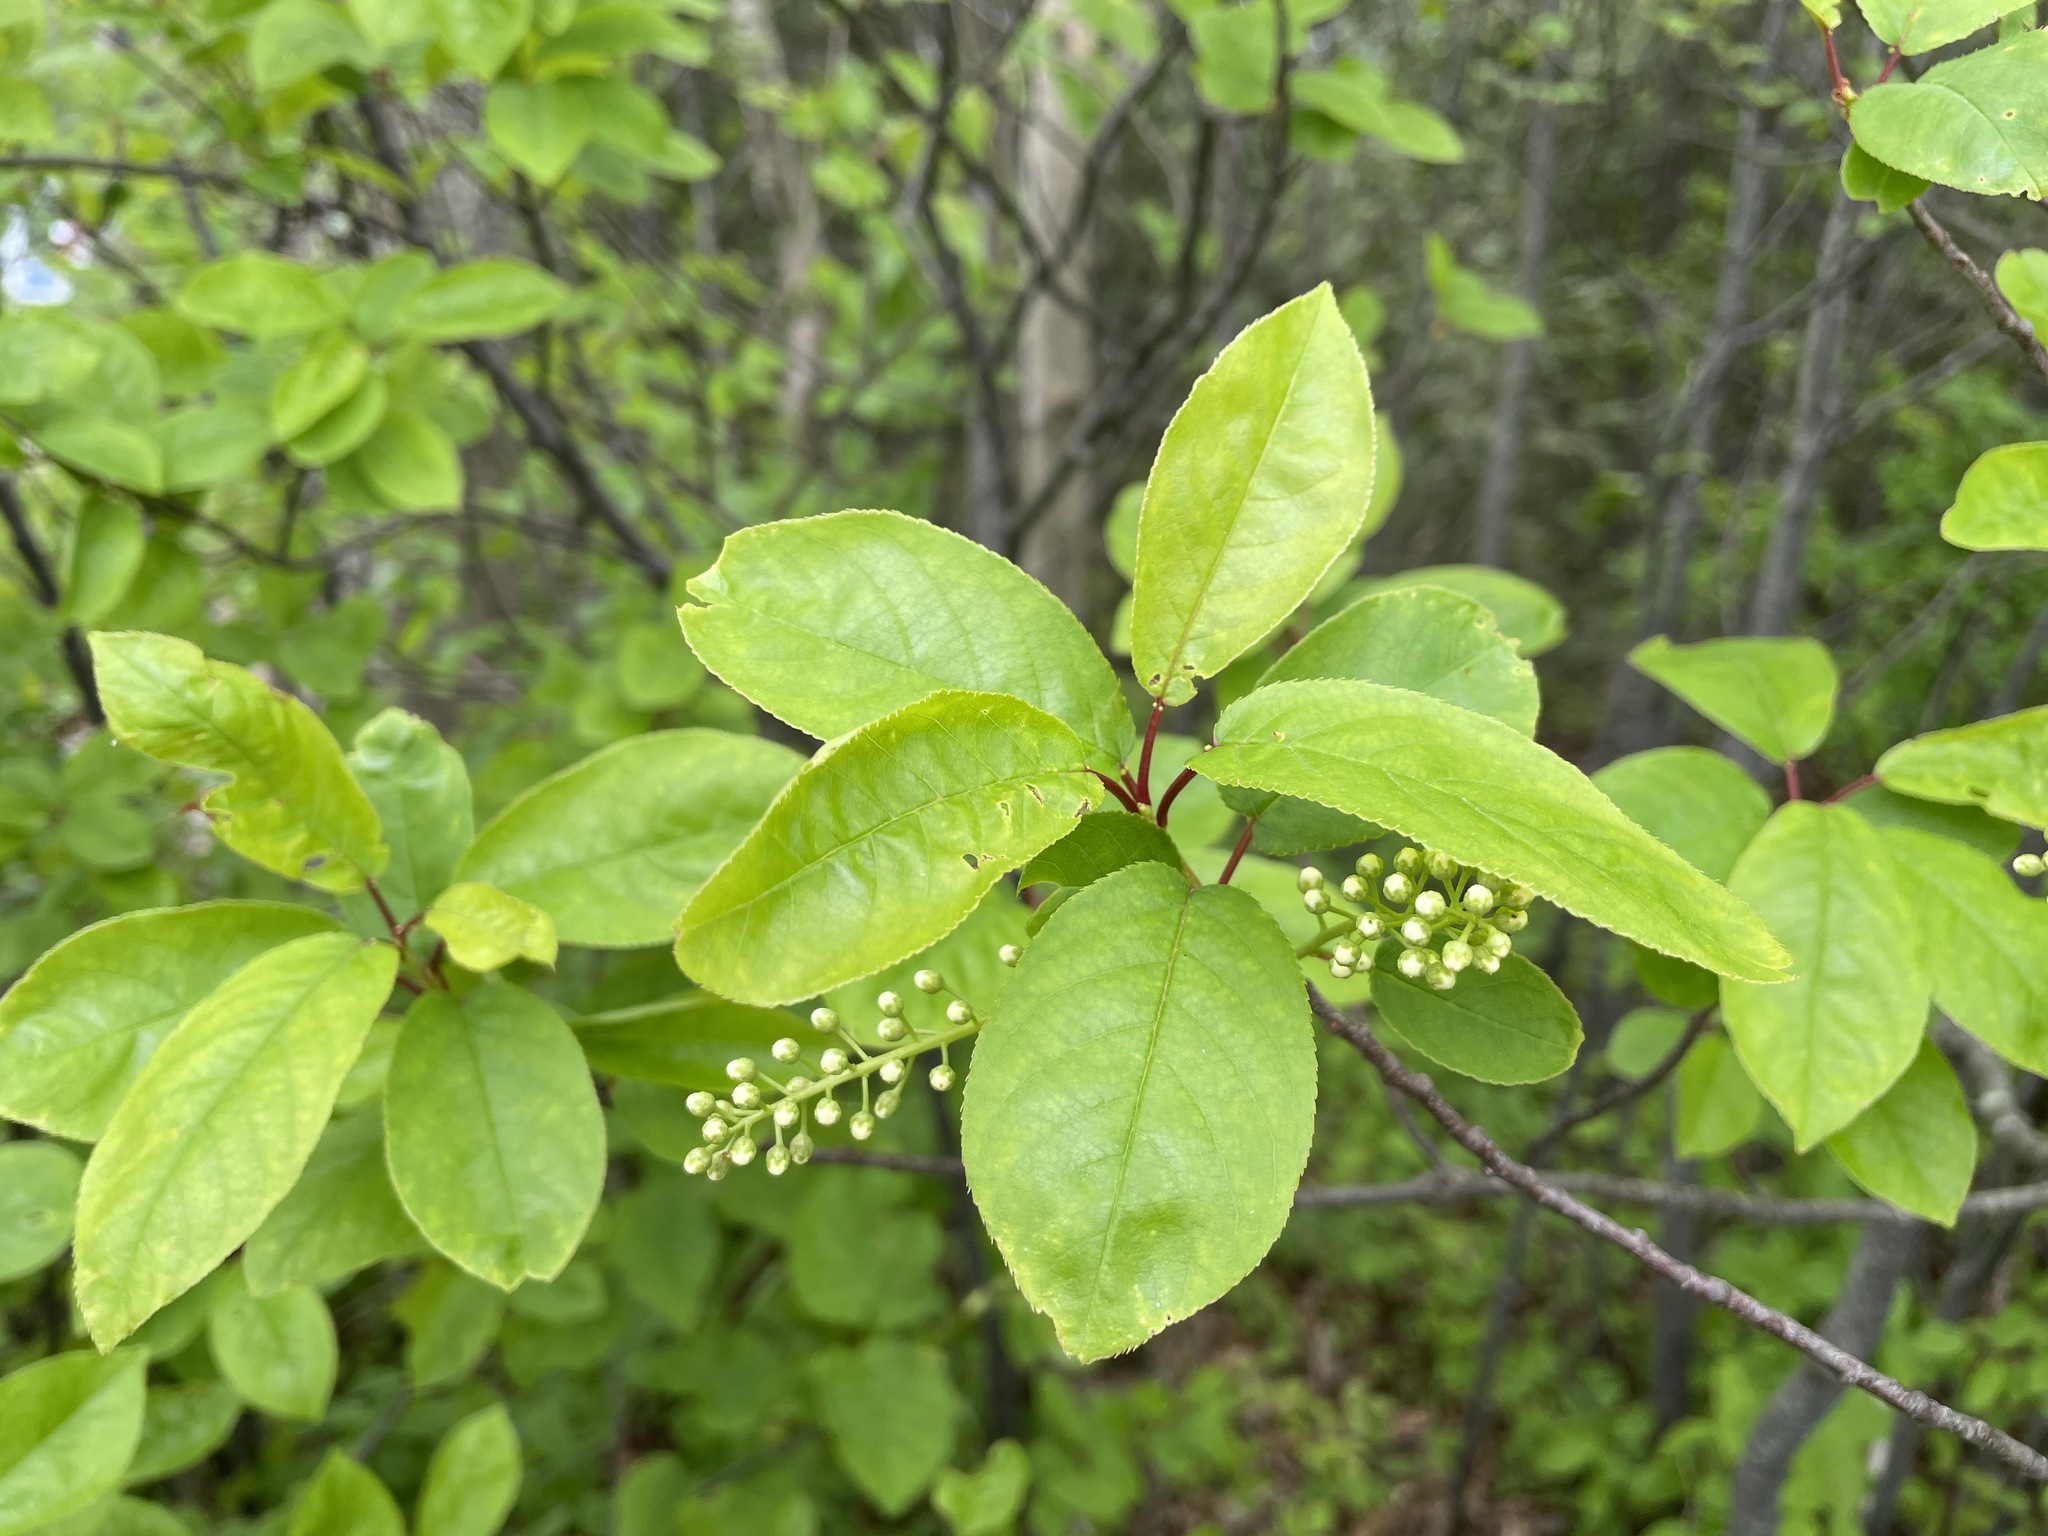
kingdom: Plantae
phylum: Tracheophyta
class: Magnoliopsida
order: Rosales
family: Rosaceae
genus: Prunus
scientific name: Prunus virginiana
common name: Chokecherry
